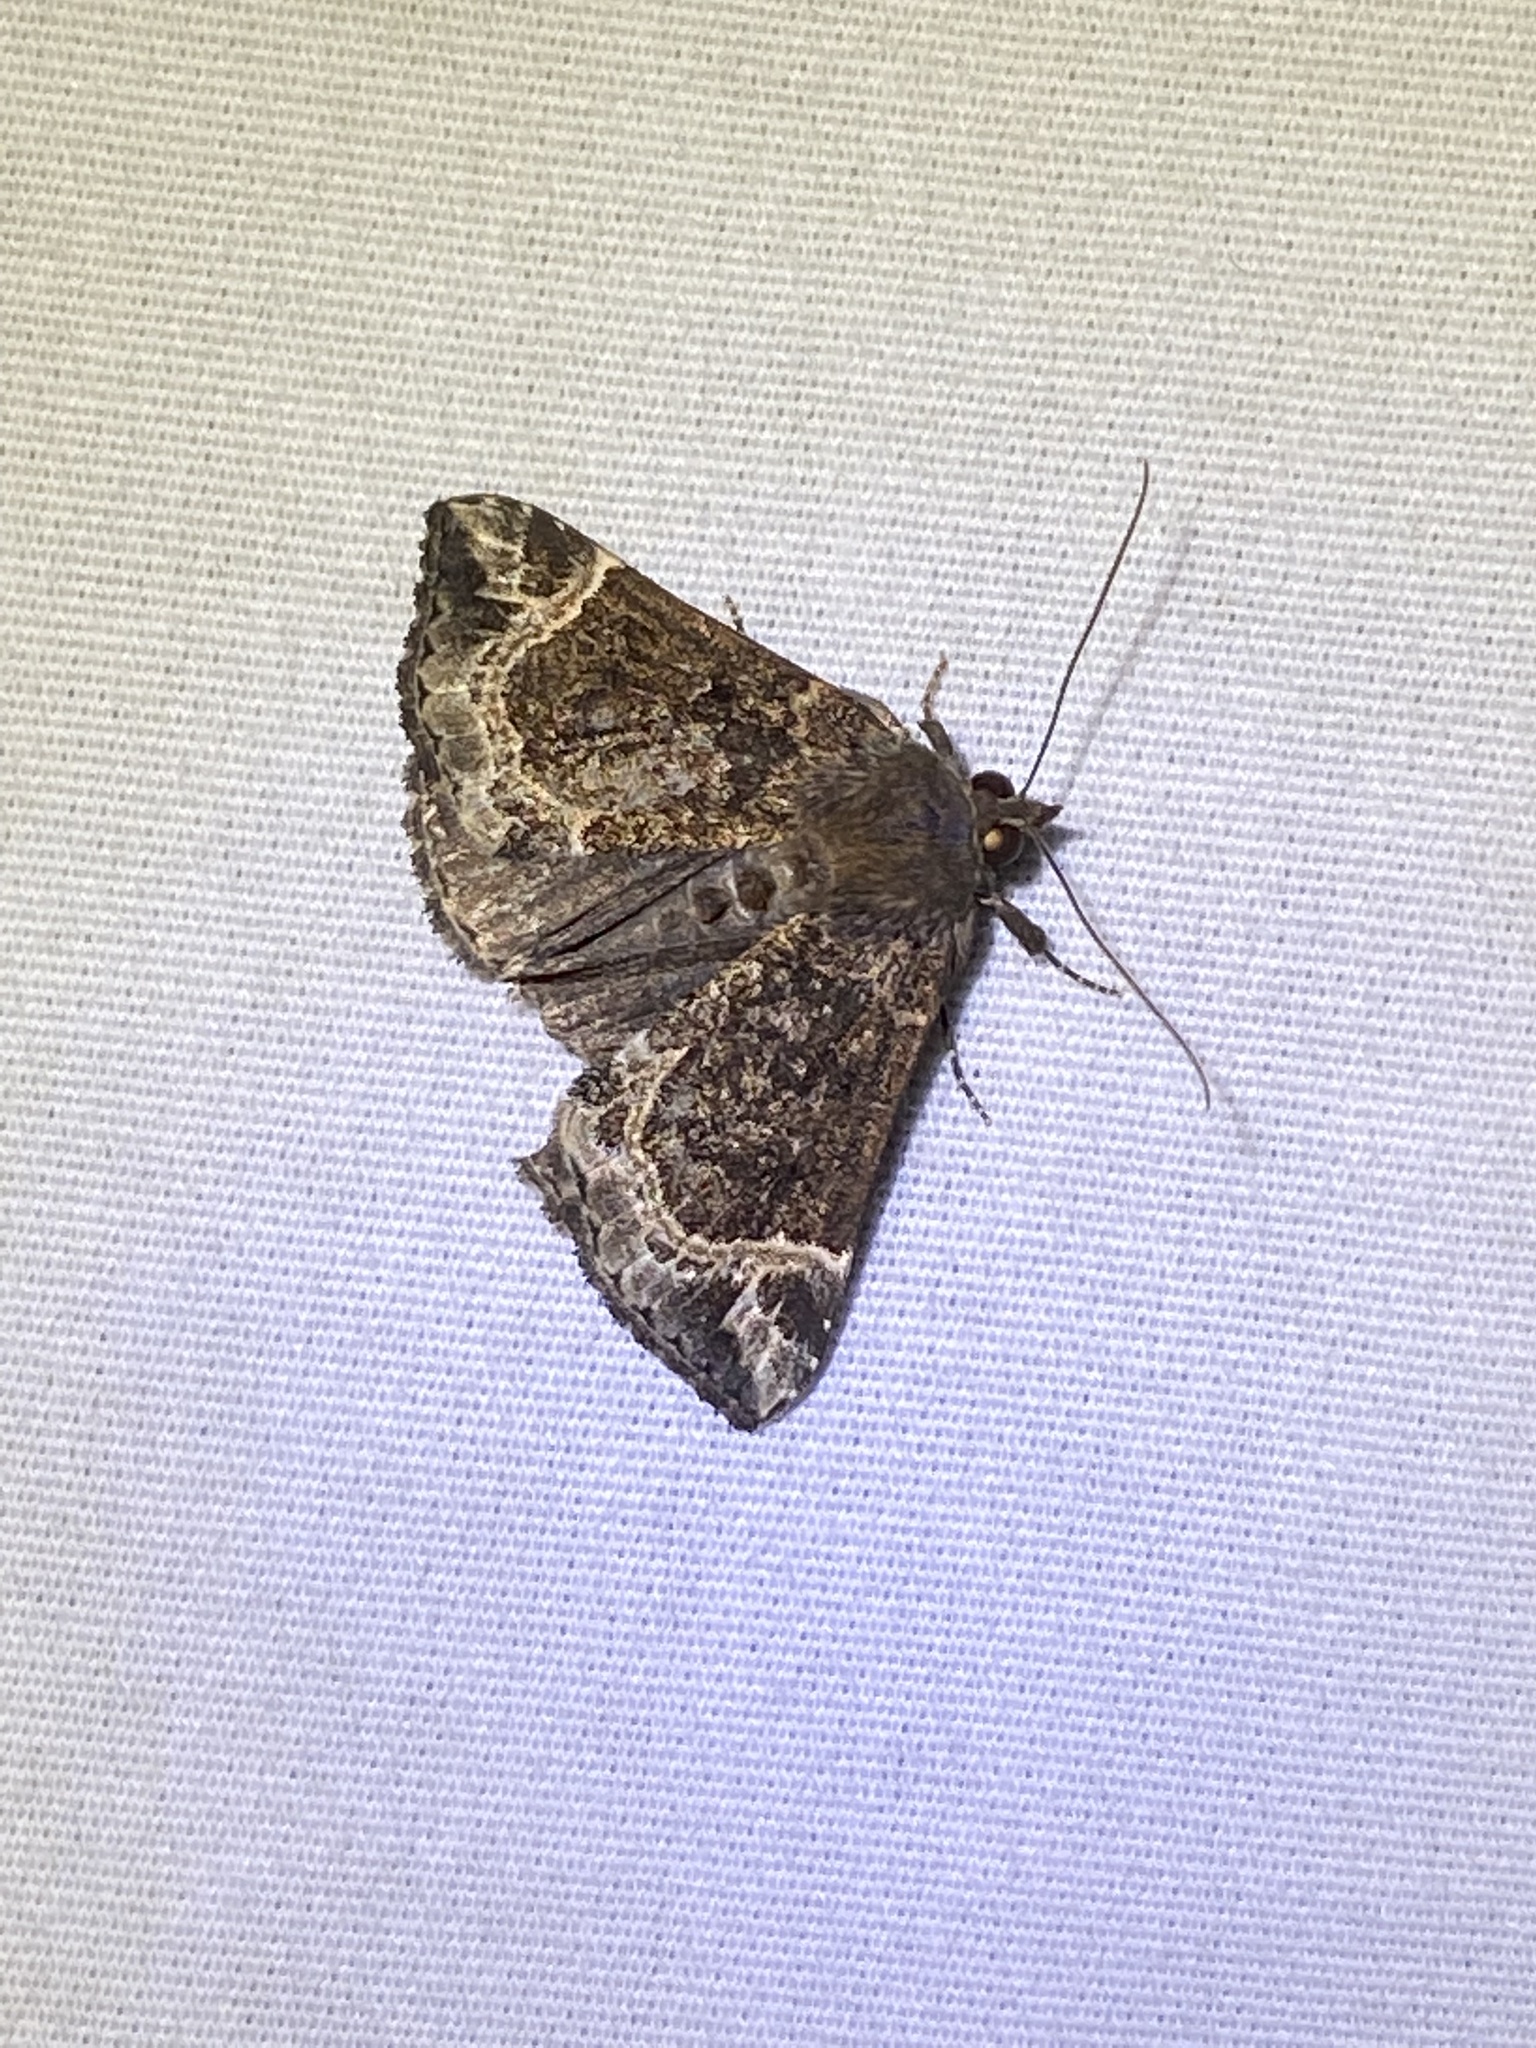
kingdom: Animalia
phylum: Arthropoda
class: Insecta
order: Lepidoptera
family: Erebidae
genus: Hypena
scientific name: Hypena abalienalis
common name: White-lined snout
